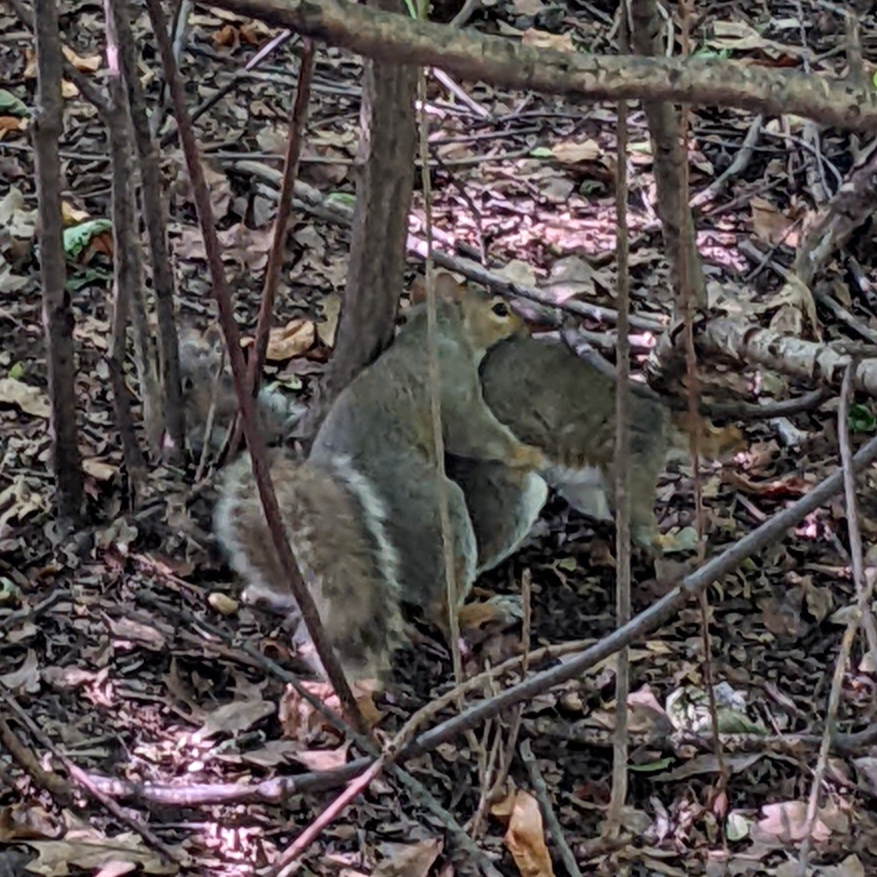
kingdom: Animalia
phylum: Chordata
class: Mammalia
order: Rodentia
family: Sciuridae
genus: Sciurus
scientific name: Sciurus carolinensis
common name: Eastern gray squirrel
